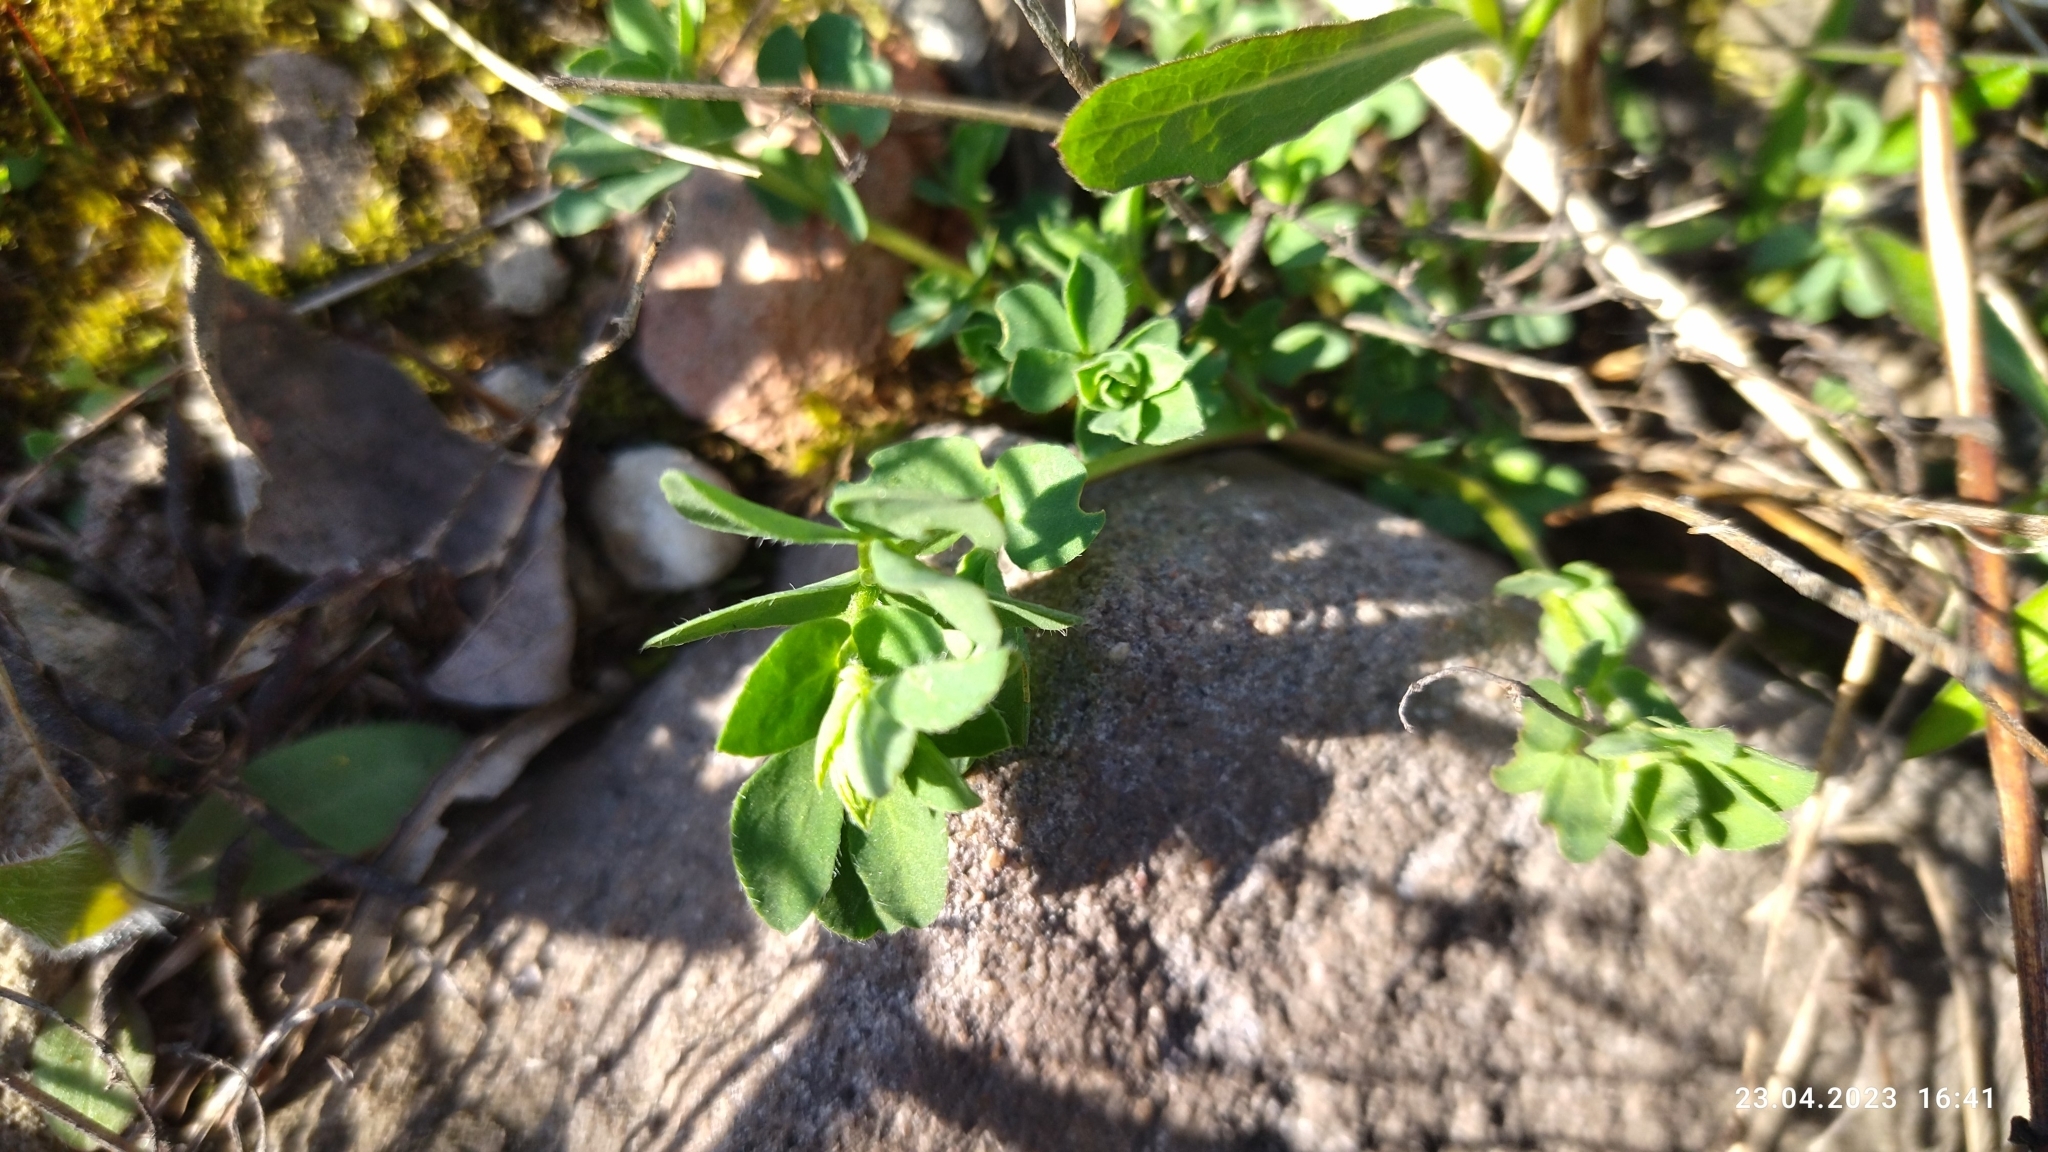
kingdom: Plantae
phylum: Tracheophyta
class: Magnoliopsida
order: Fabales
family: Fabaceae
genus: Lotus
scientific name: Lotus corniculatus
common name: Common bird's-foot-trefoil
